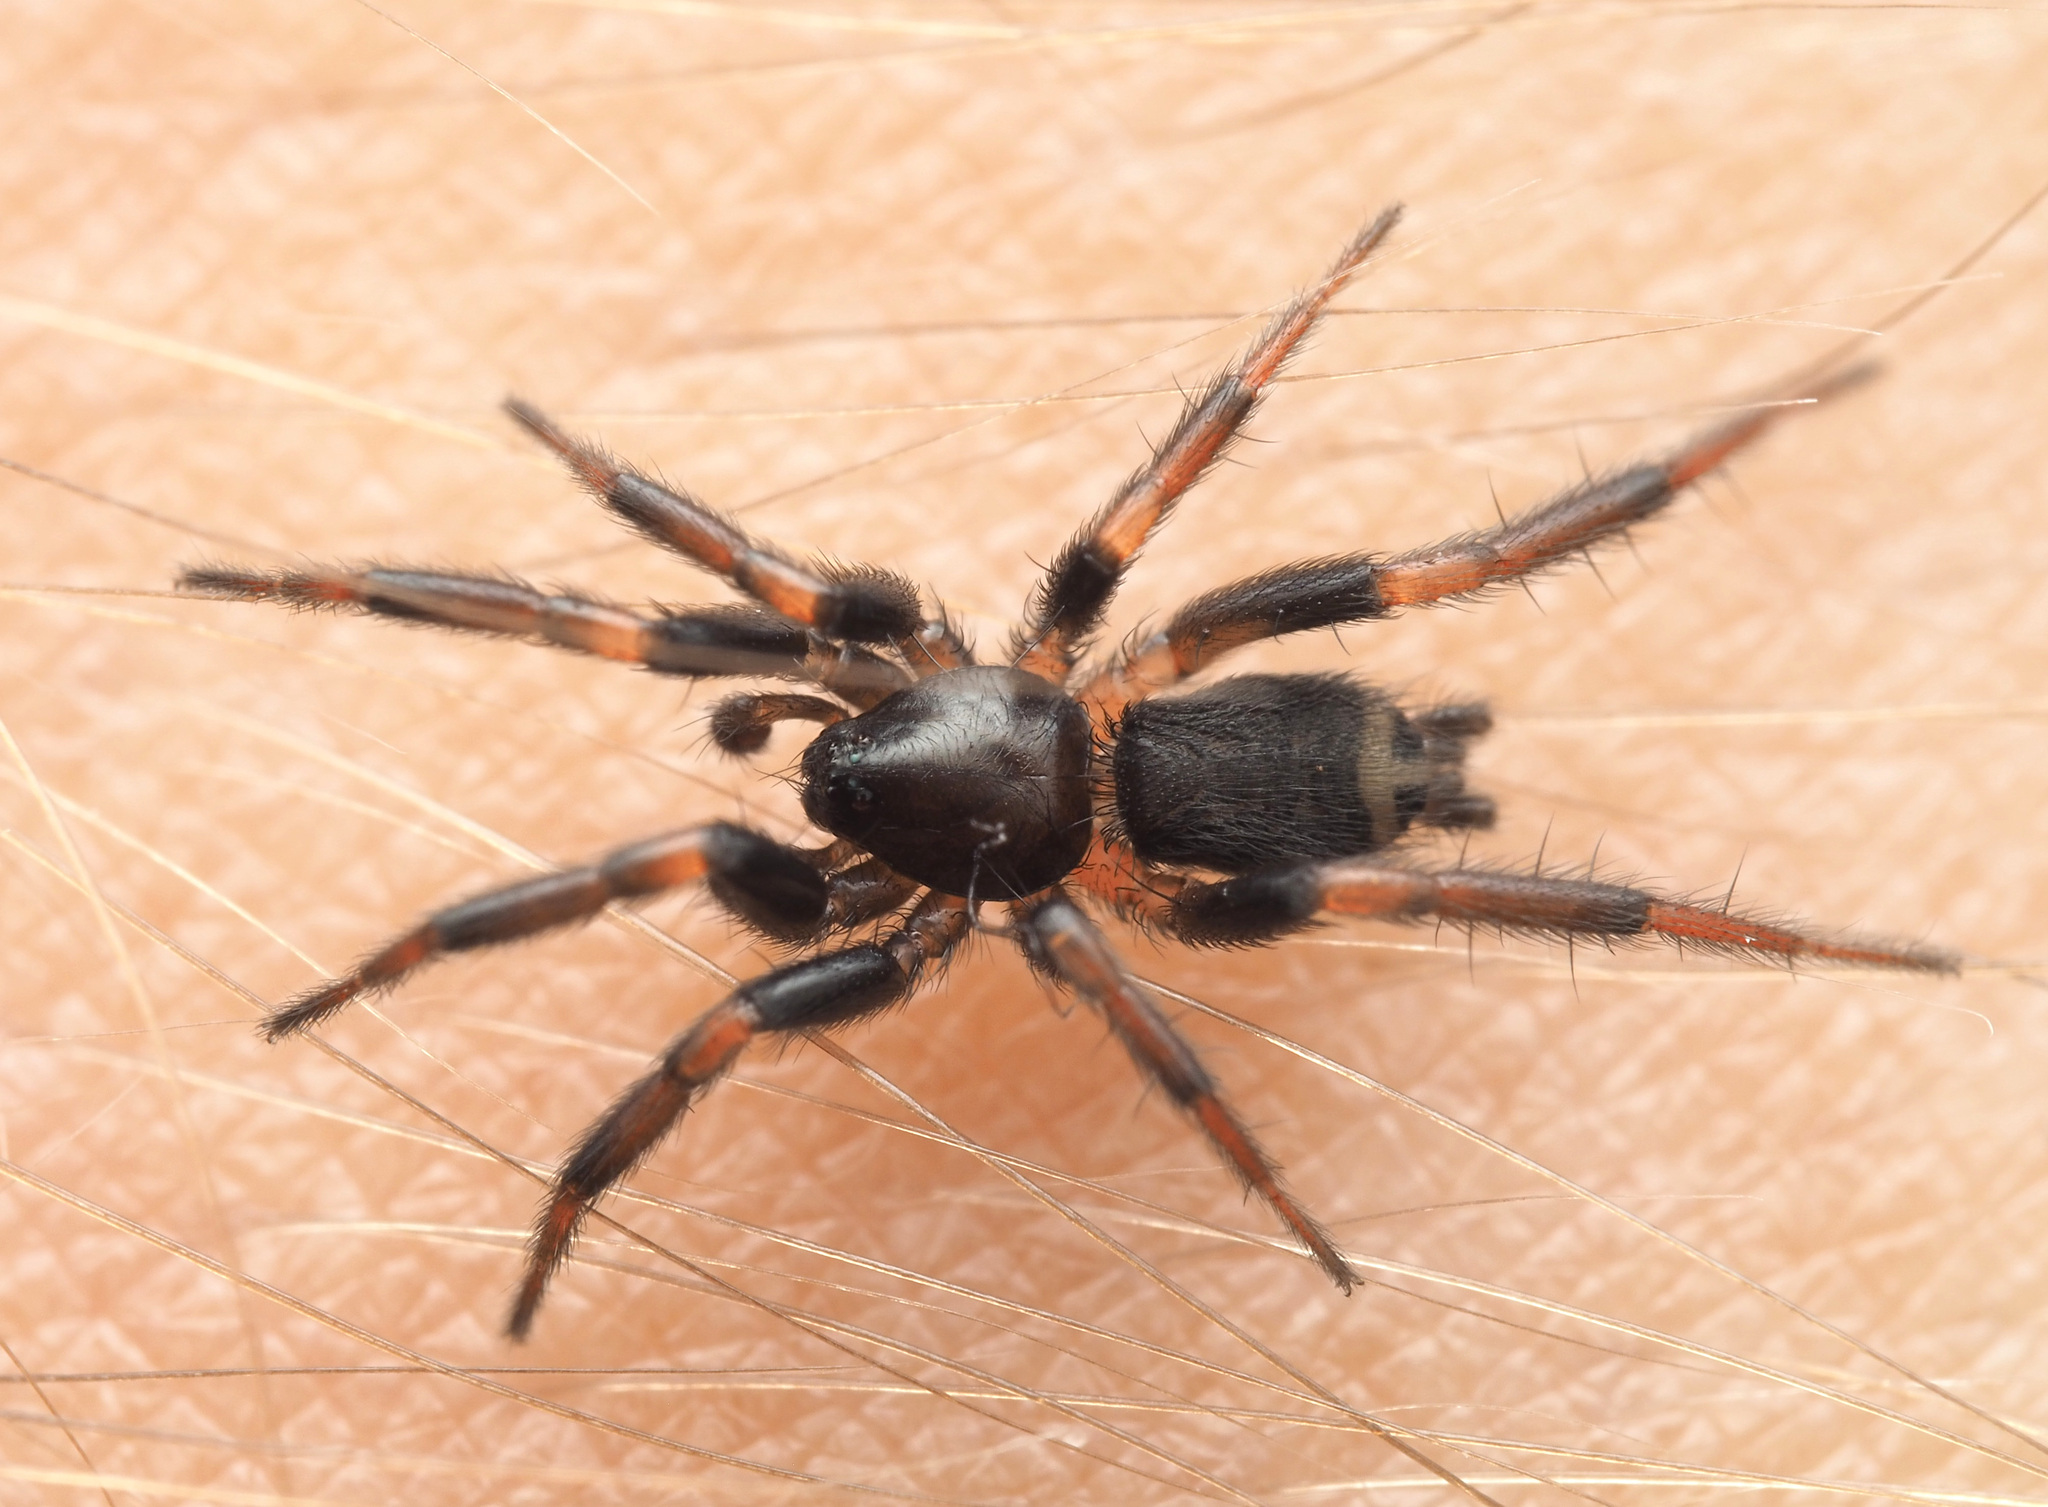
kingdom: Animalia
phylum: Arthropoda
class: Arachnida
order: Araneae
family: Gnaphosidae
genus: Eilica
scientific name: Eilica
